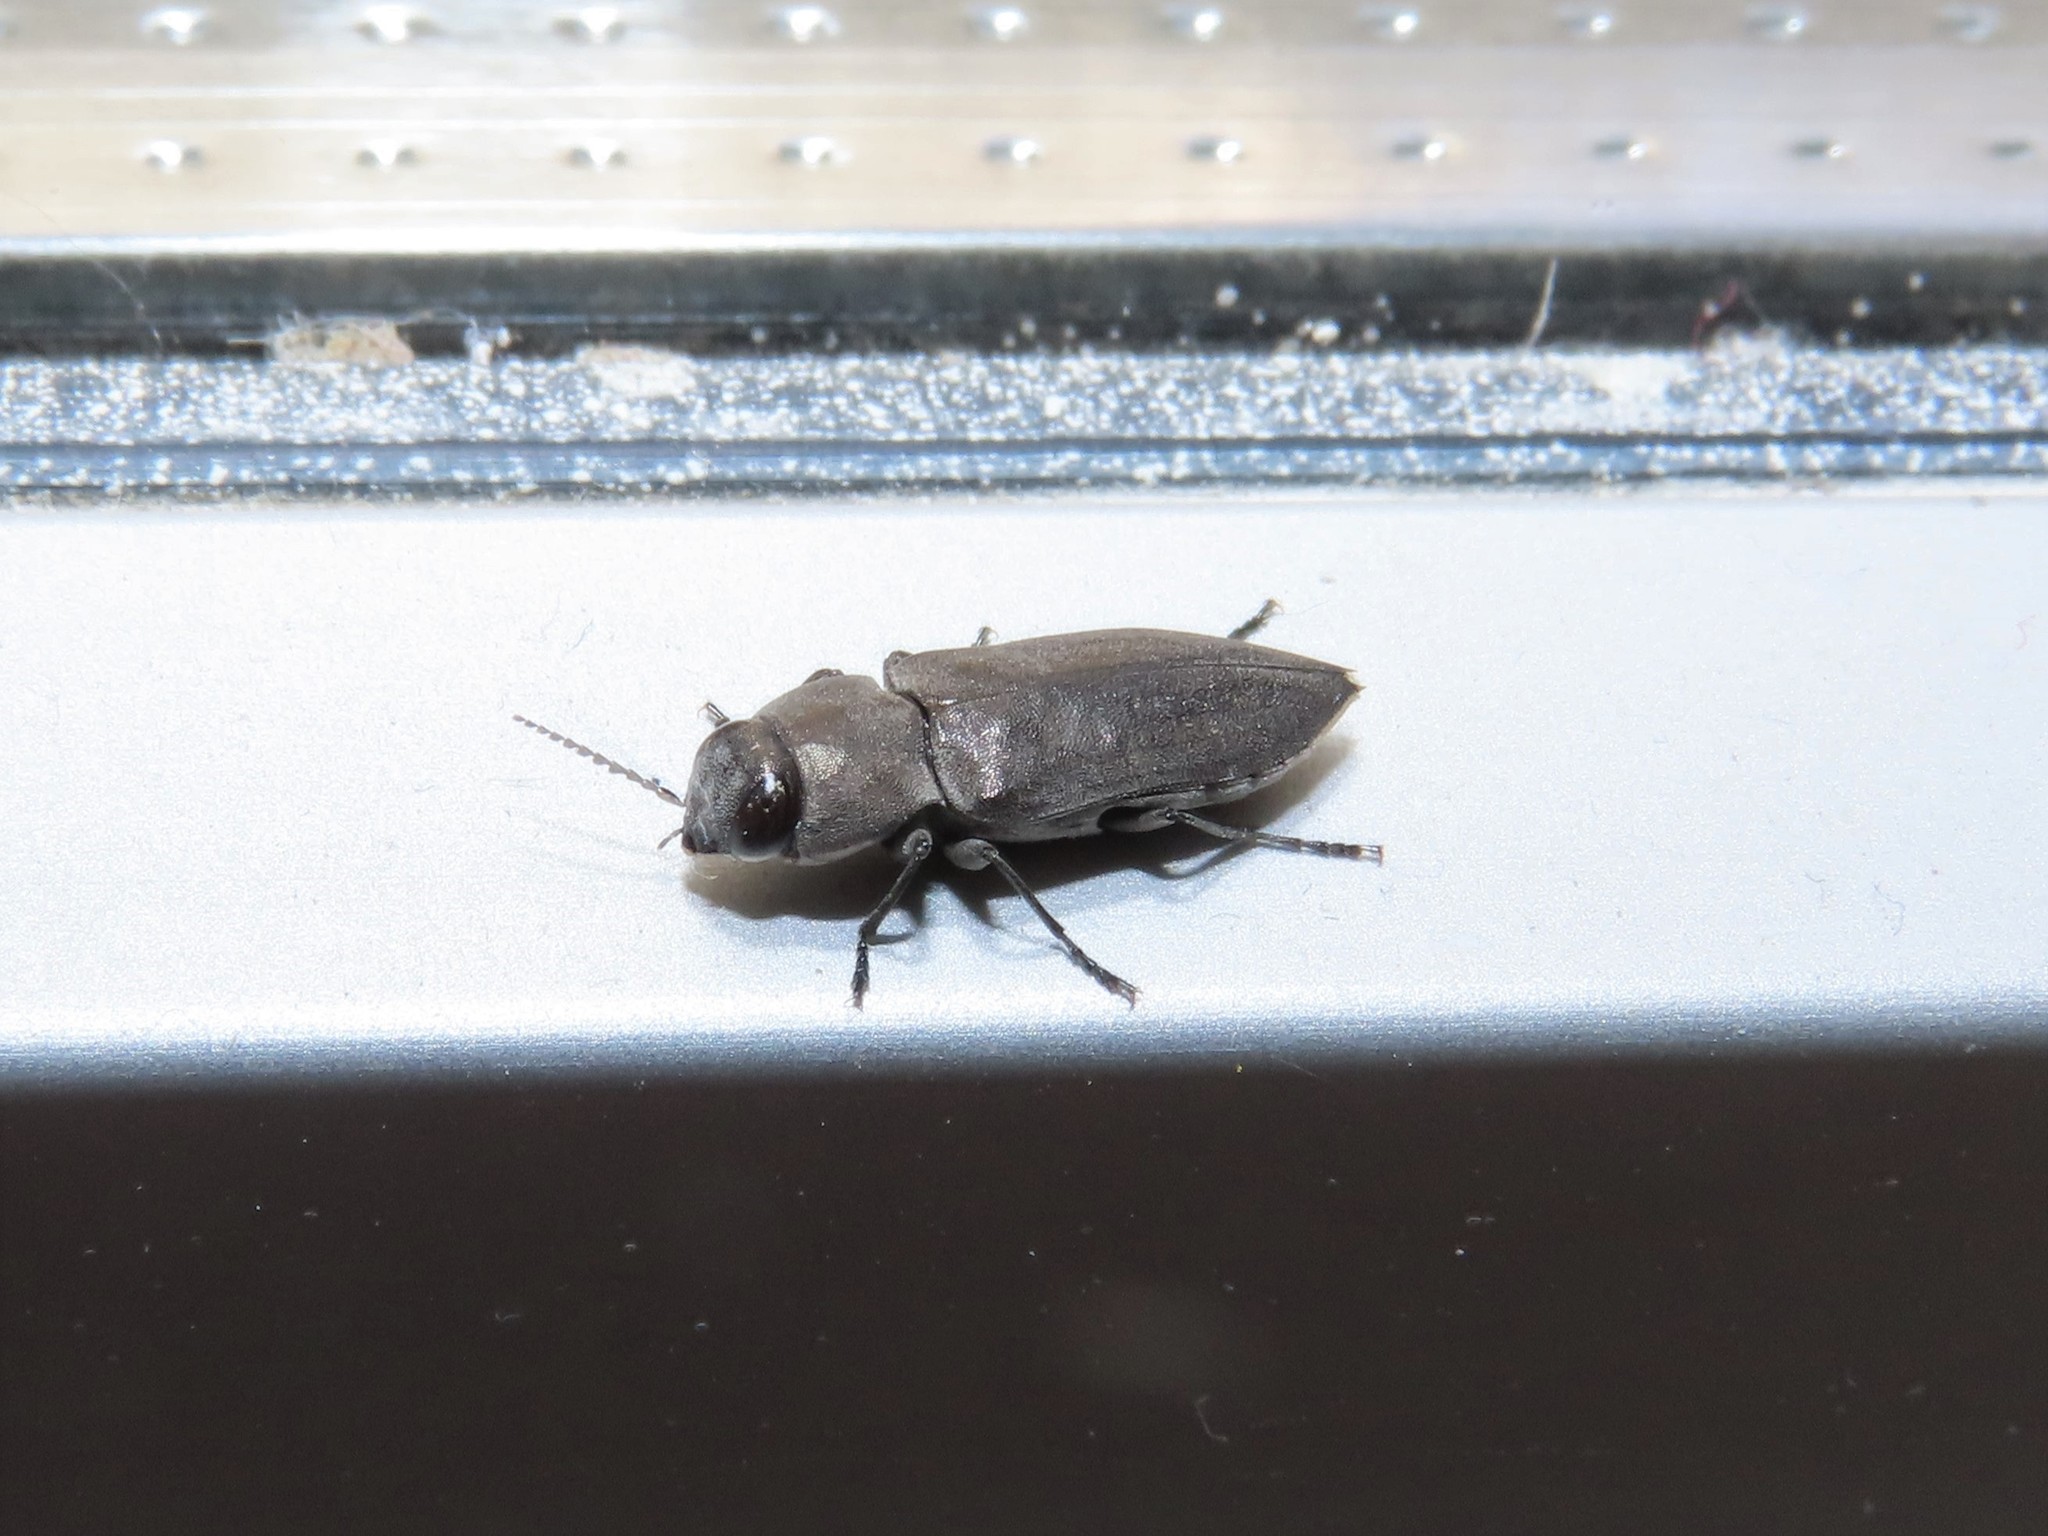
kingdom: Animalia
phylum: Arthropoda
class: Insecta
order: Coleoptera
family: Buprestidae
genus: Melanophila
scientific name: Melanophila cuspidata
